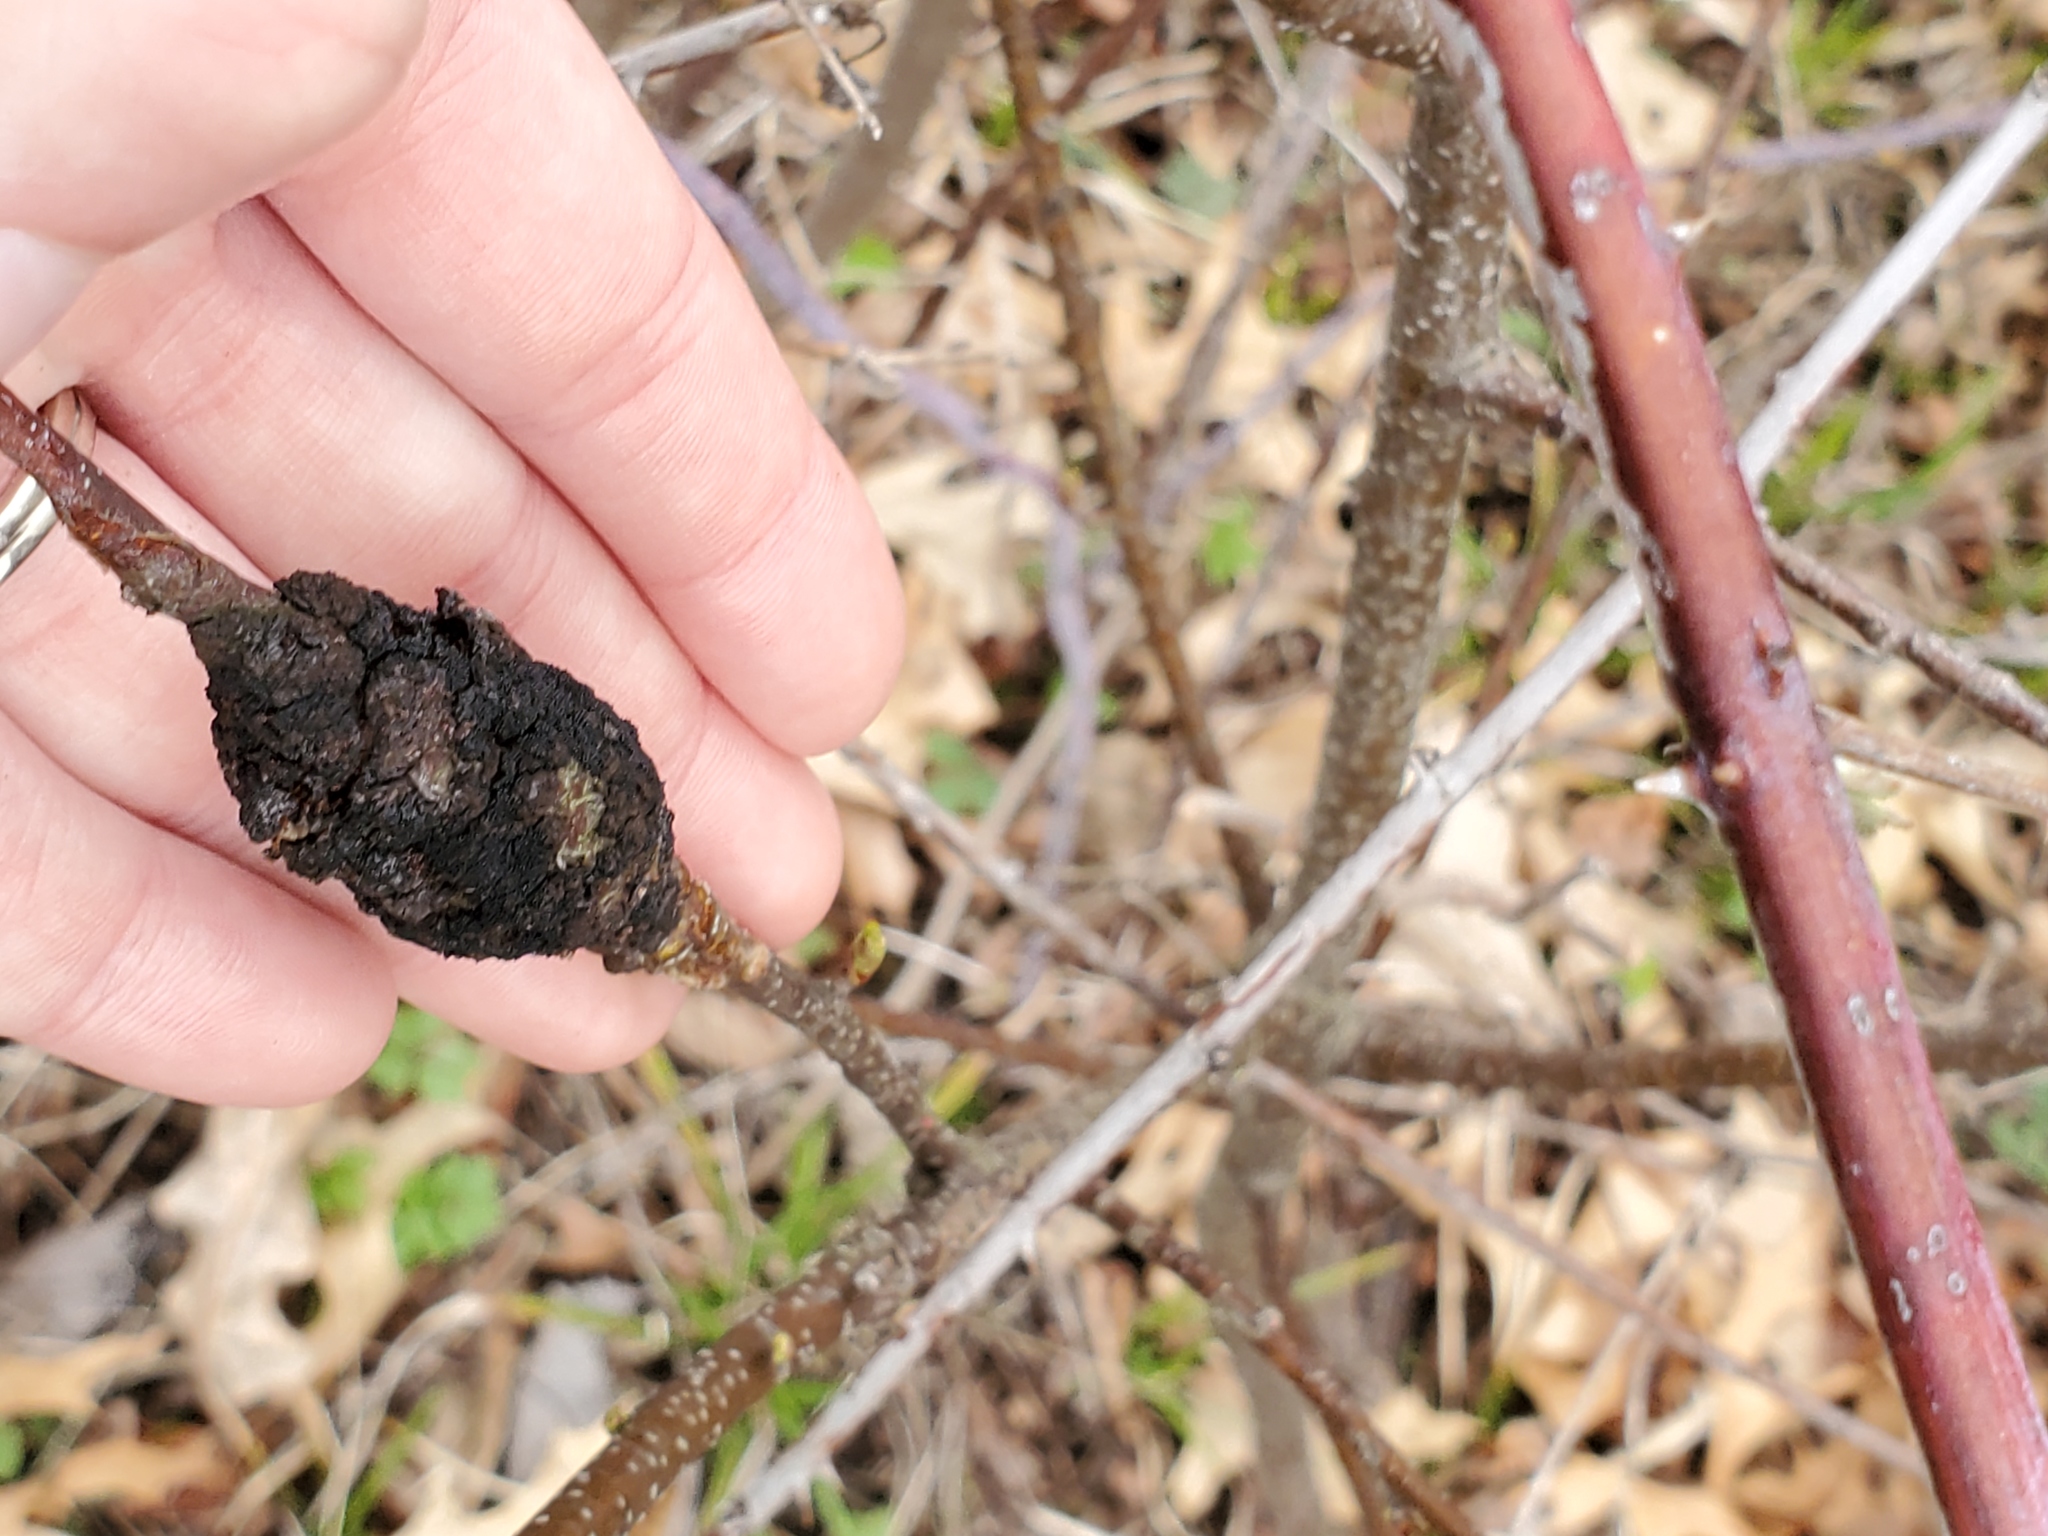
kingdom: Fungi
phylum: Ascomycota
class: Dothideomycetes
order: Venturiales
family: Venturiaceae
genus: Apiosporina
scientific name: Apiosporina morbosa
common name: Black knot
